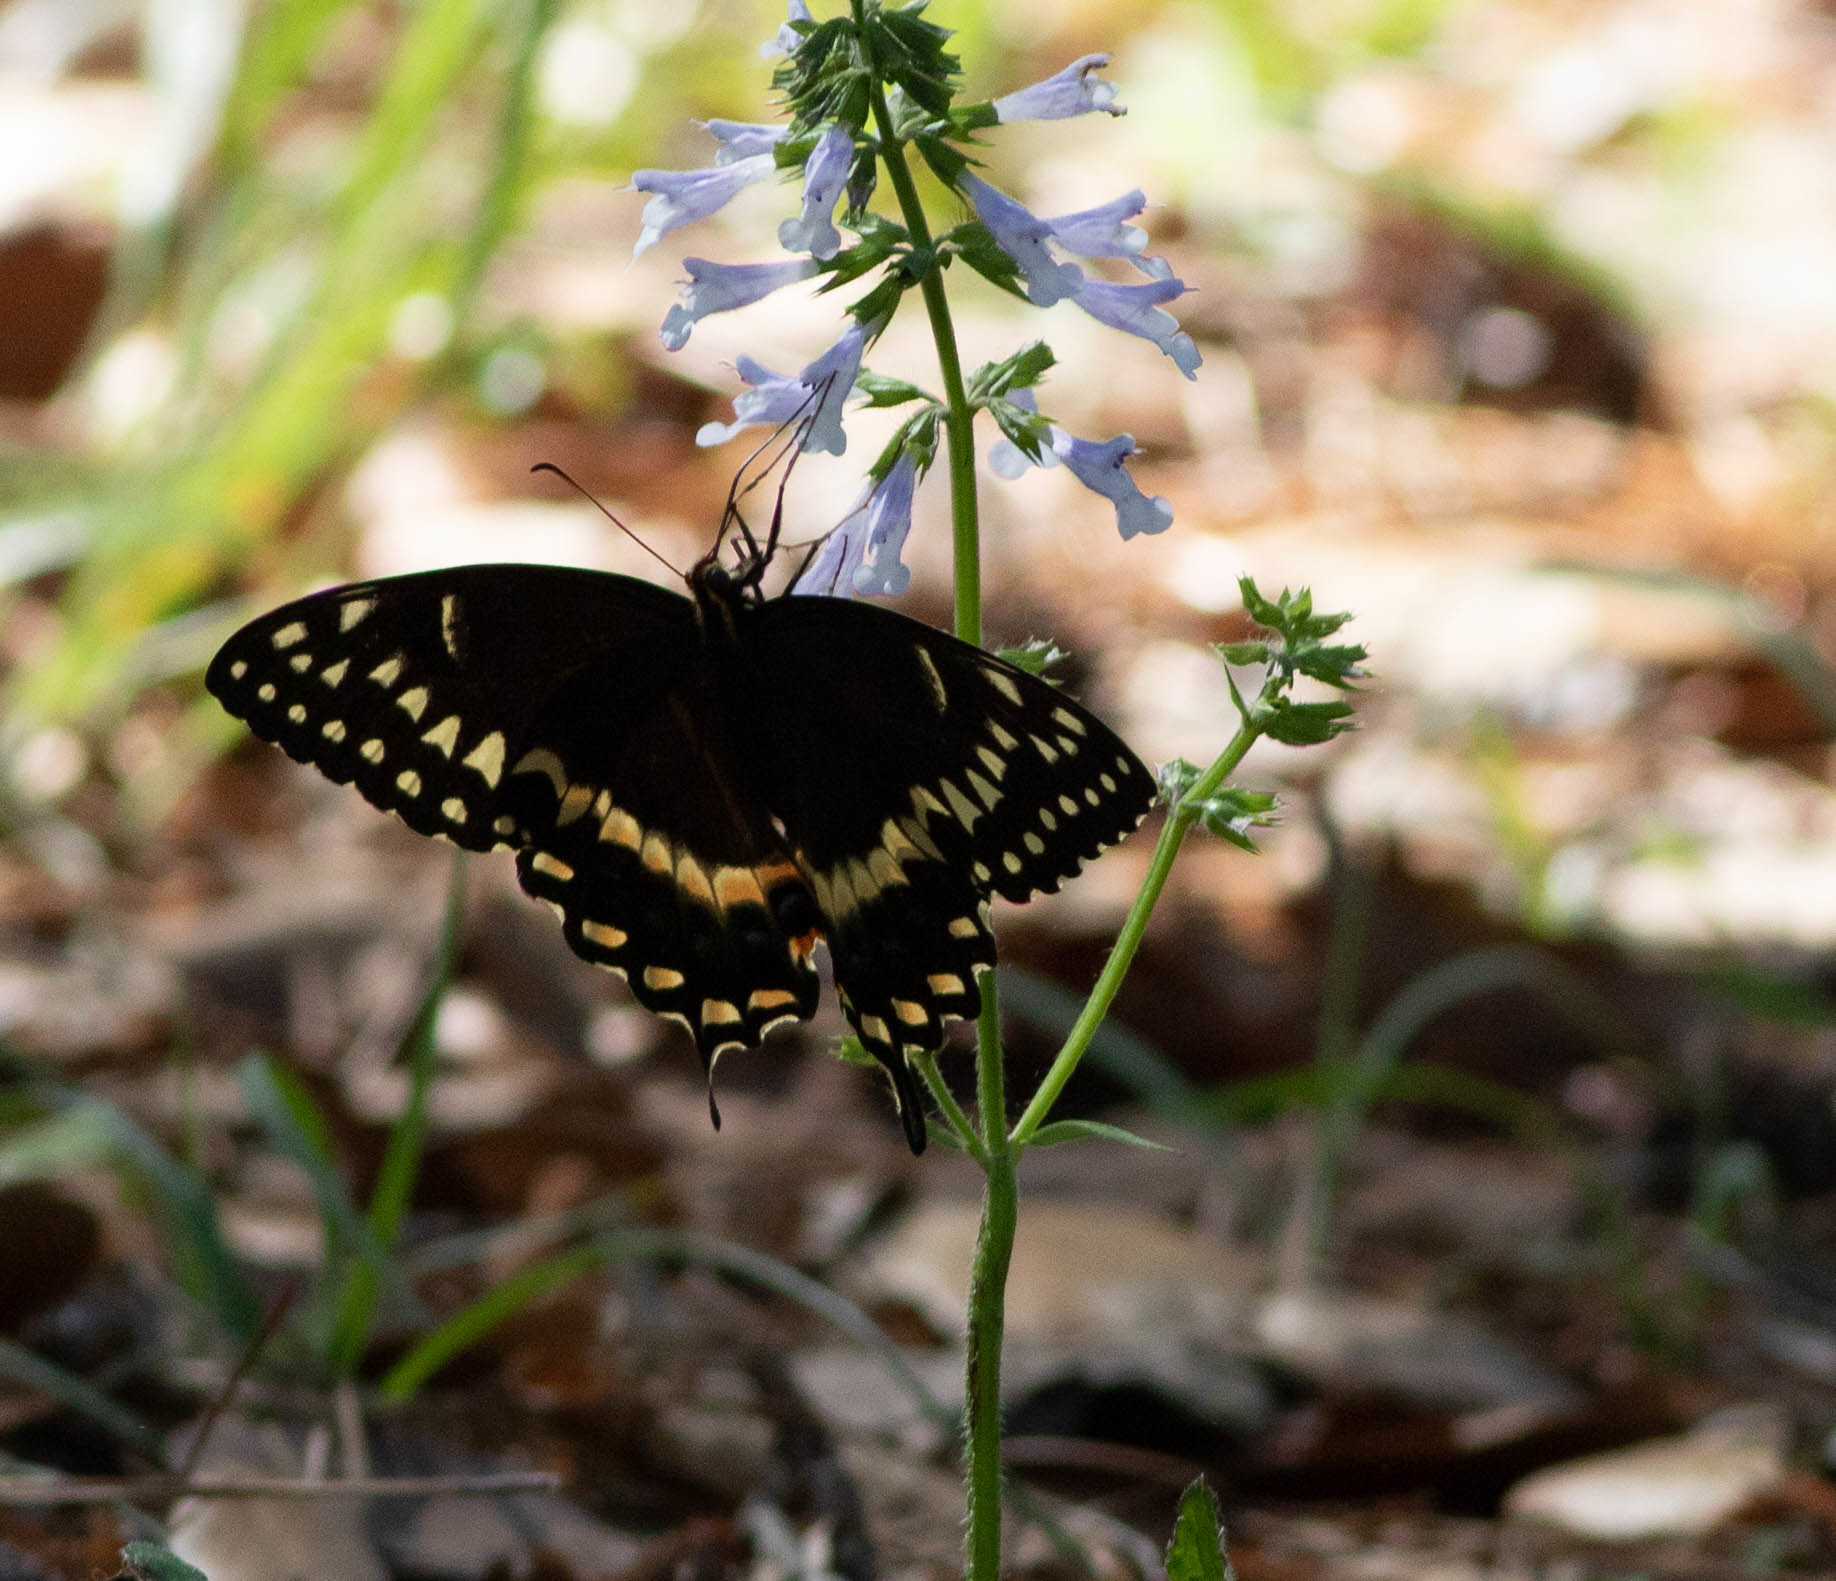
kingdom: Animalia
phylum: Arthropoda
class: Insecta
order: Lepidoptera
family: Papilionidae
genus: Papilio
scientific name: Papilio palamedes
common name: Palamedes swallowtail
